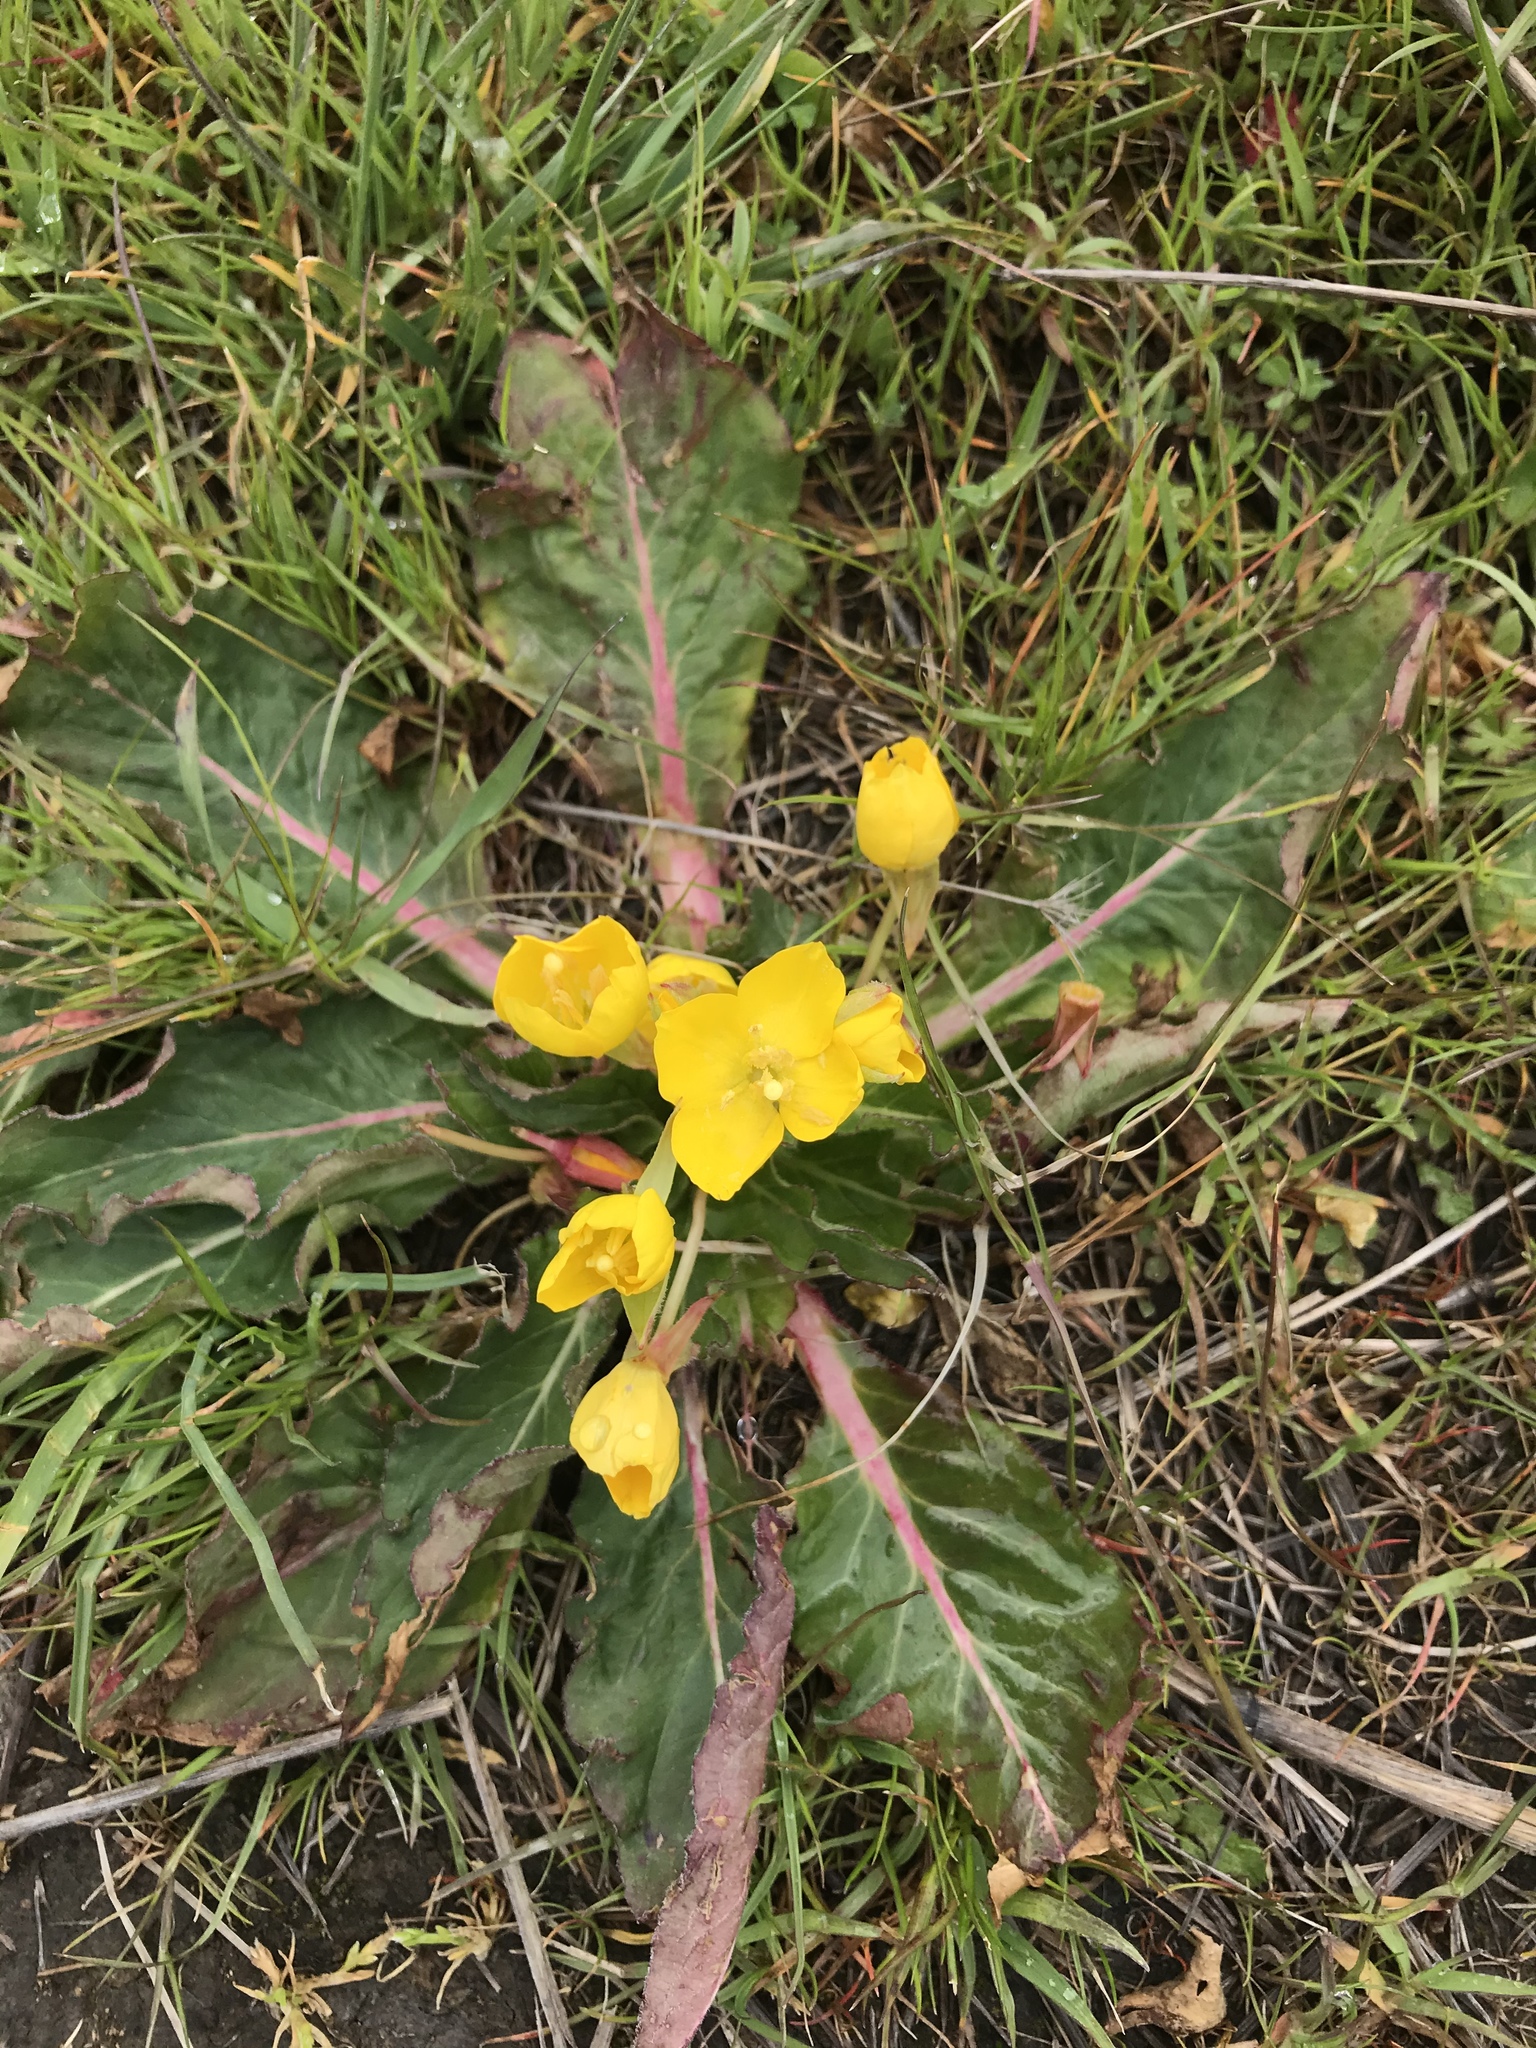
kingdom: Plantae
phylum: Tracheophyta
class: Magnoliopsida
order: Myrtales
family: Onagraceae
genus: Taraxia
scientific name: Taraxia ovata
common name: Goldeneggs
